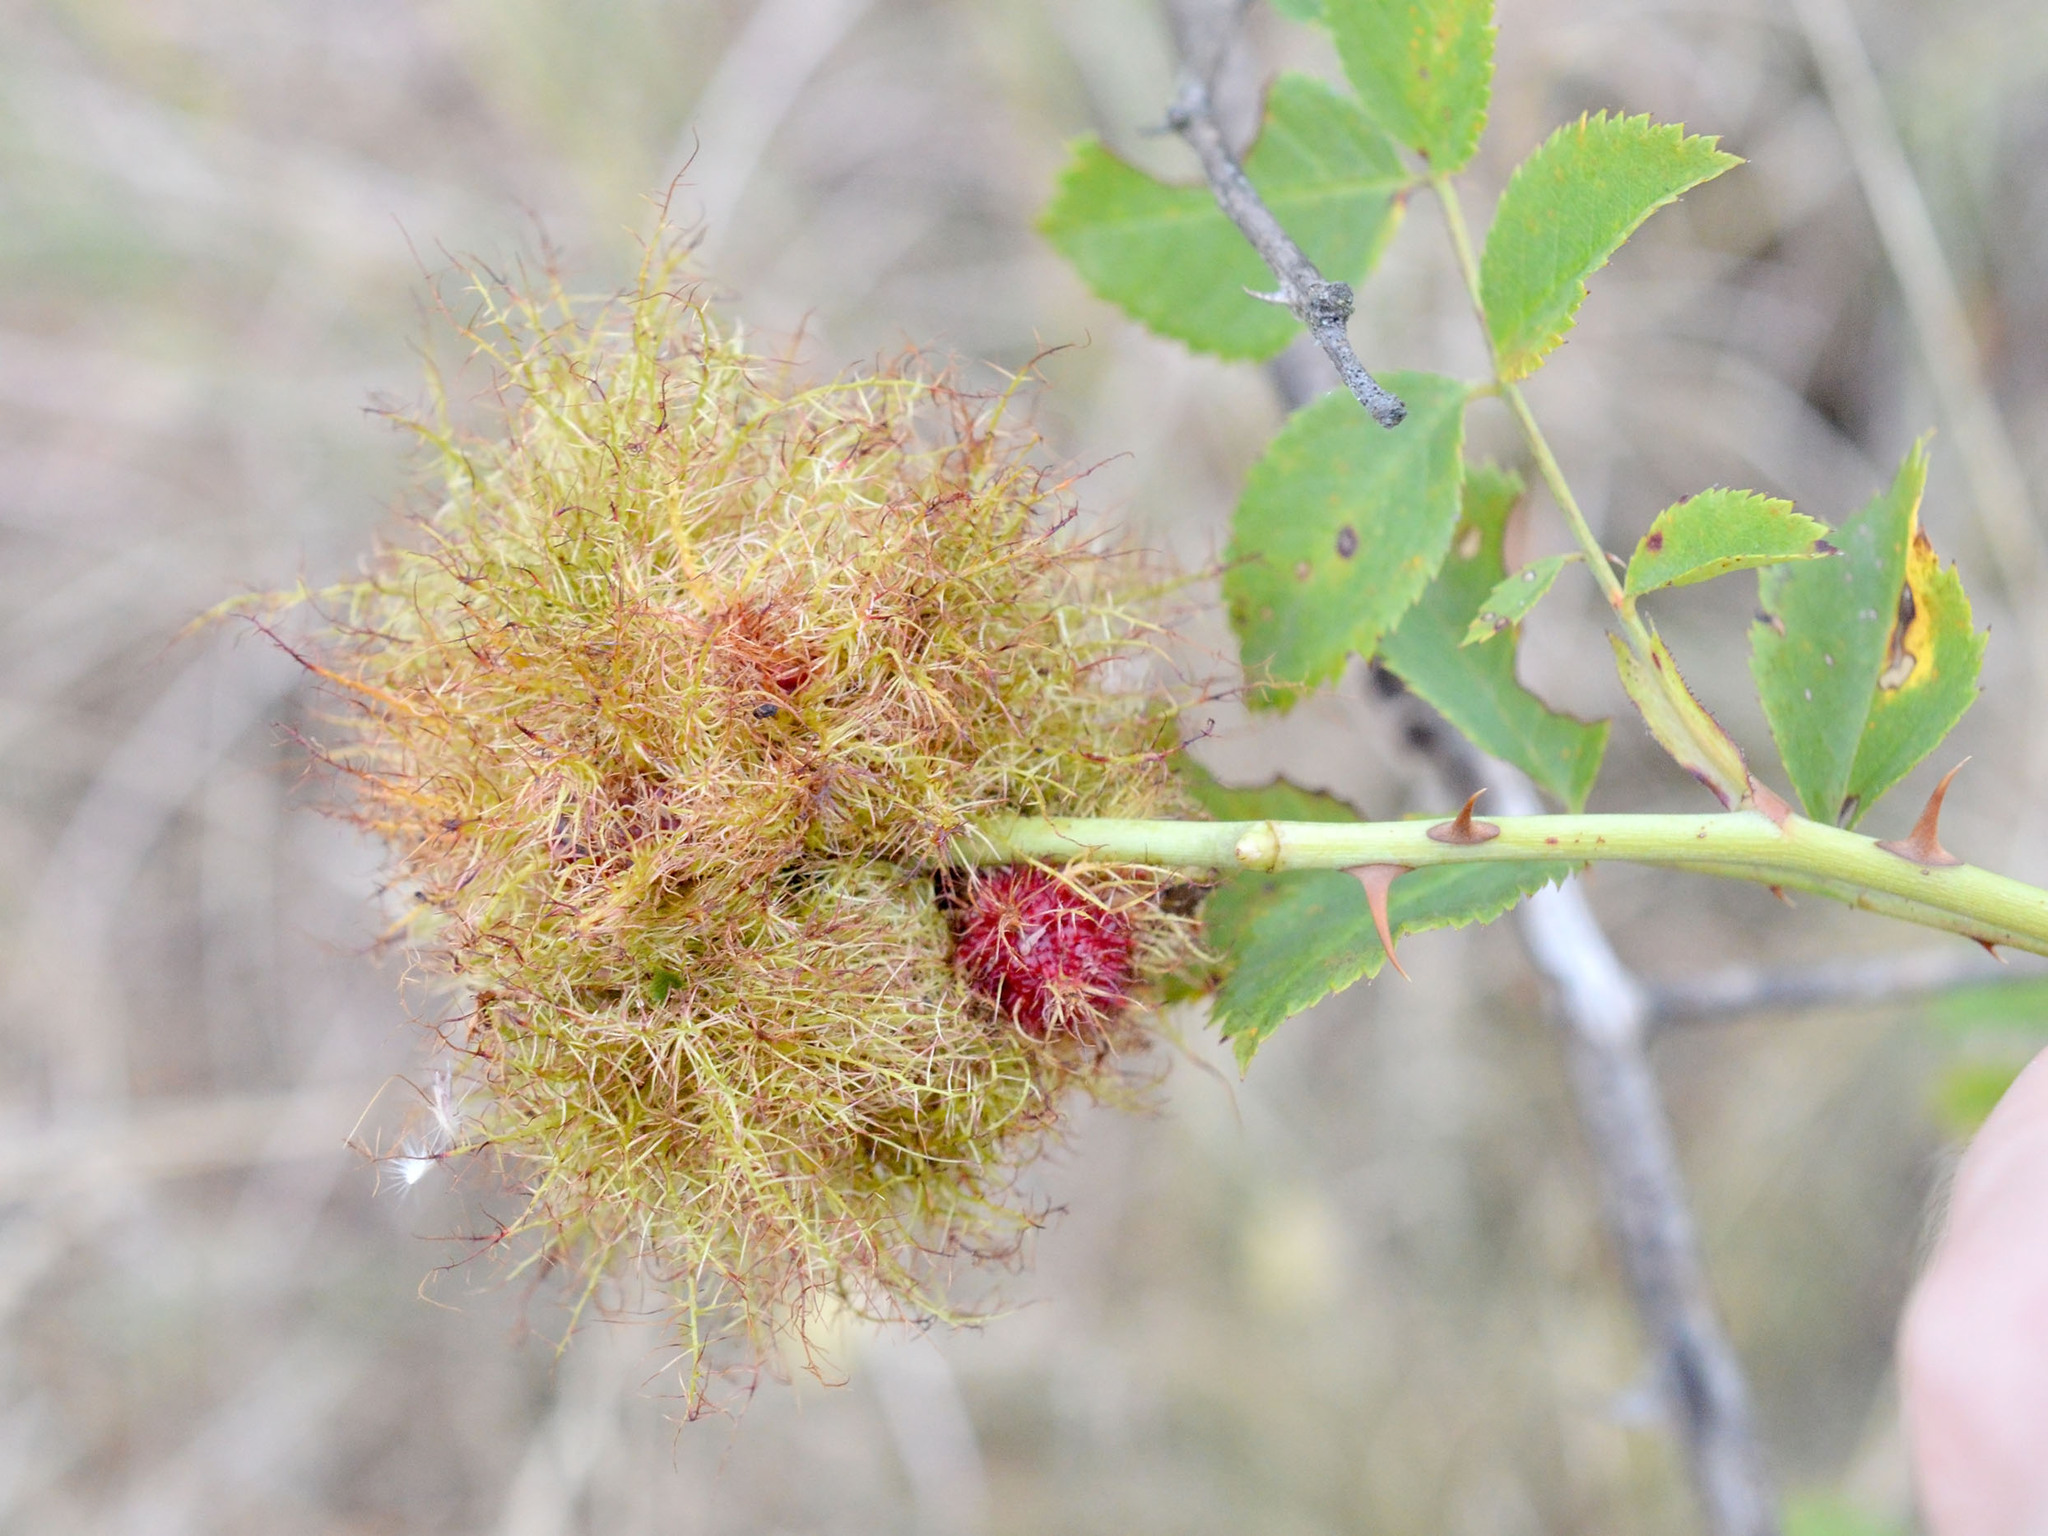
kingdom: Animalia
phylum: Arthropoda
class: Insecta
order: Hymenoptera
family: Cynipidae
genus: Diplolepis
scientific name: Diplolepis rosae
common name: Bedeguar gall
